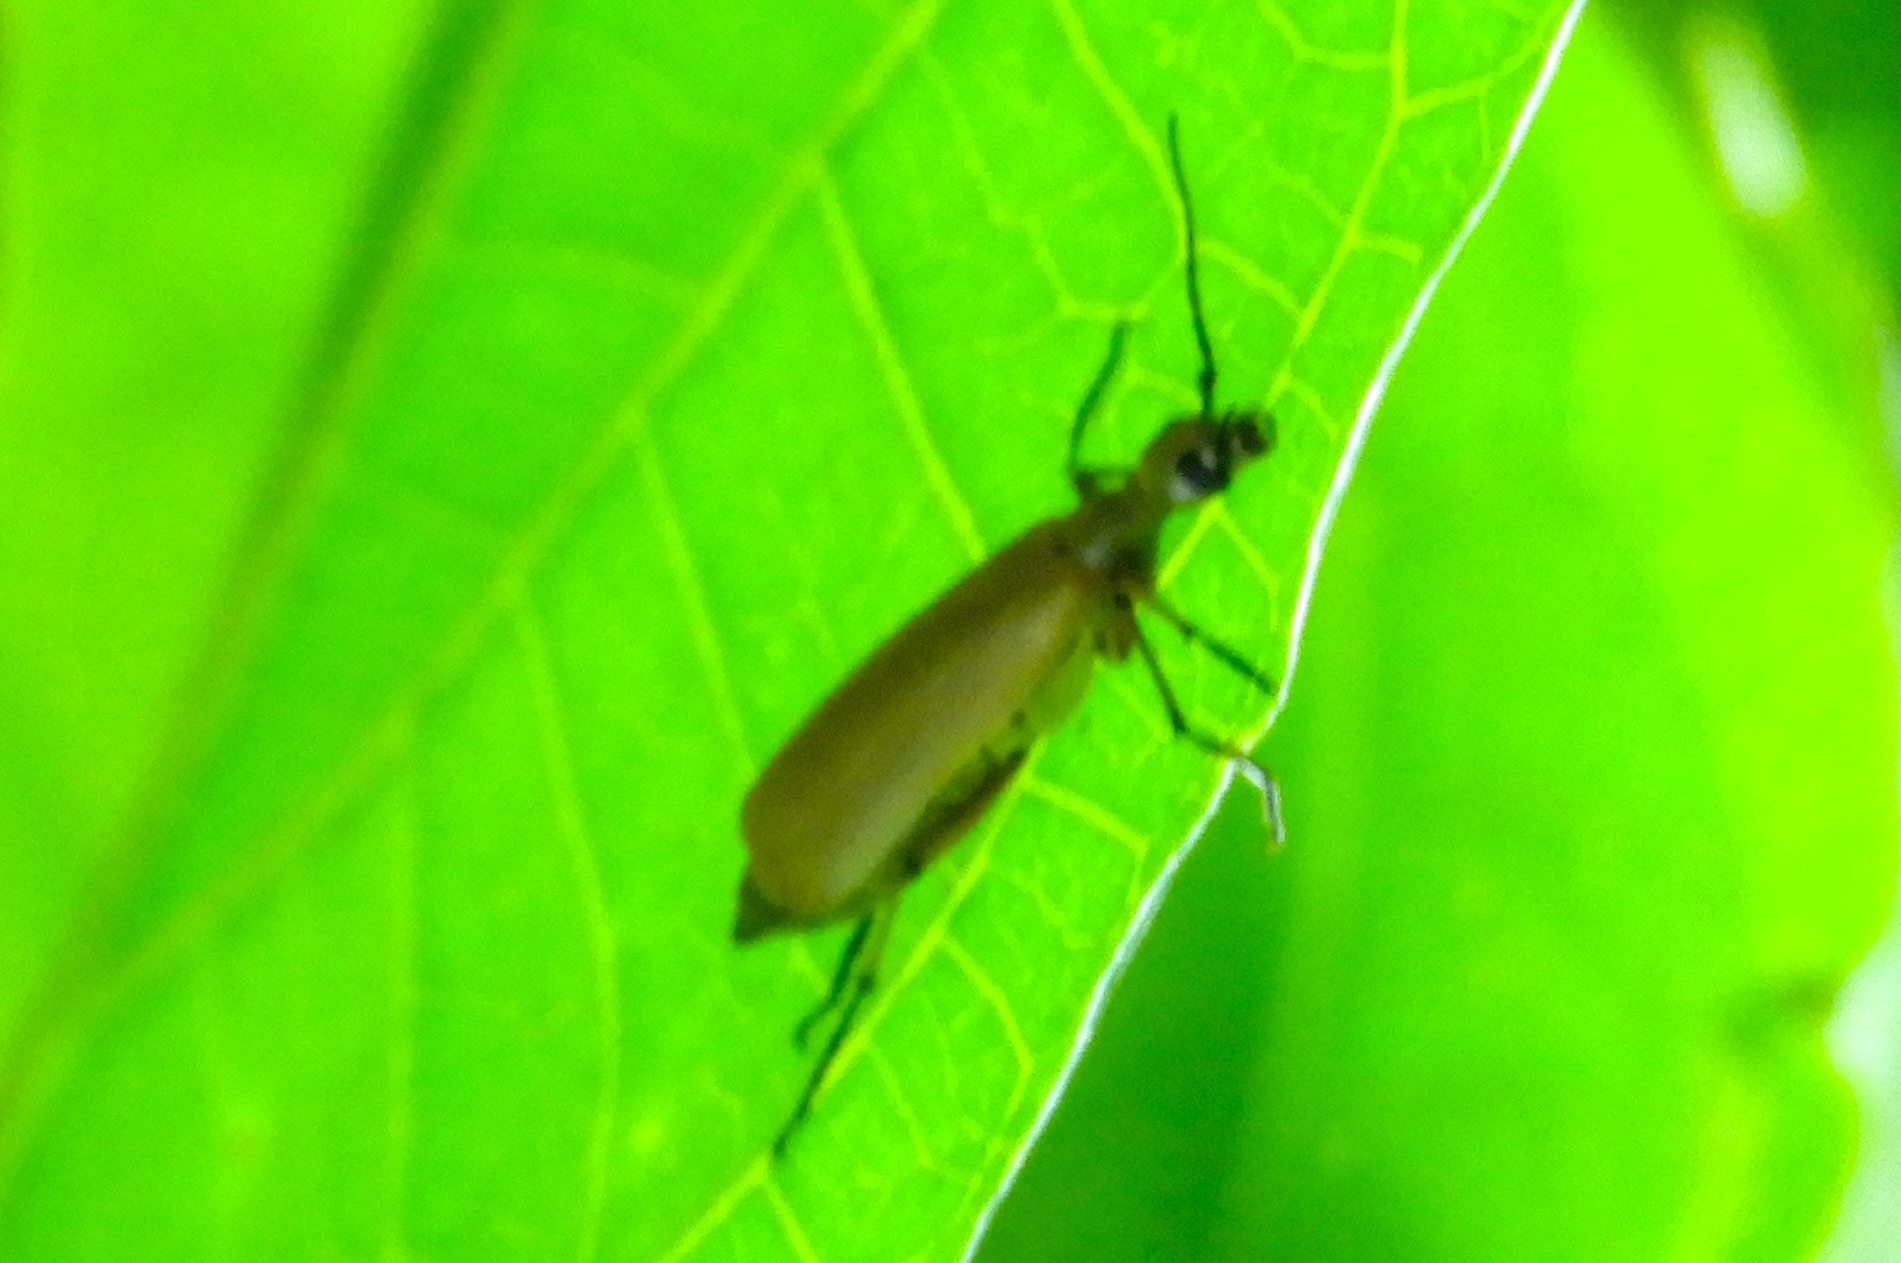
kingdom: Animalia
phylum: Arthropoda
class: Insecta
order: Coleoptera
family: Meloidae
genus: Epicauta
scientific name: Epicauta cupraeola
